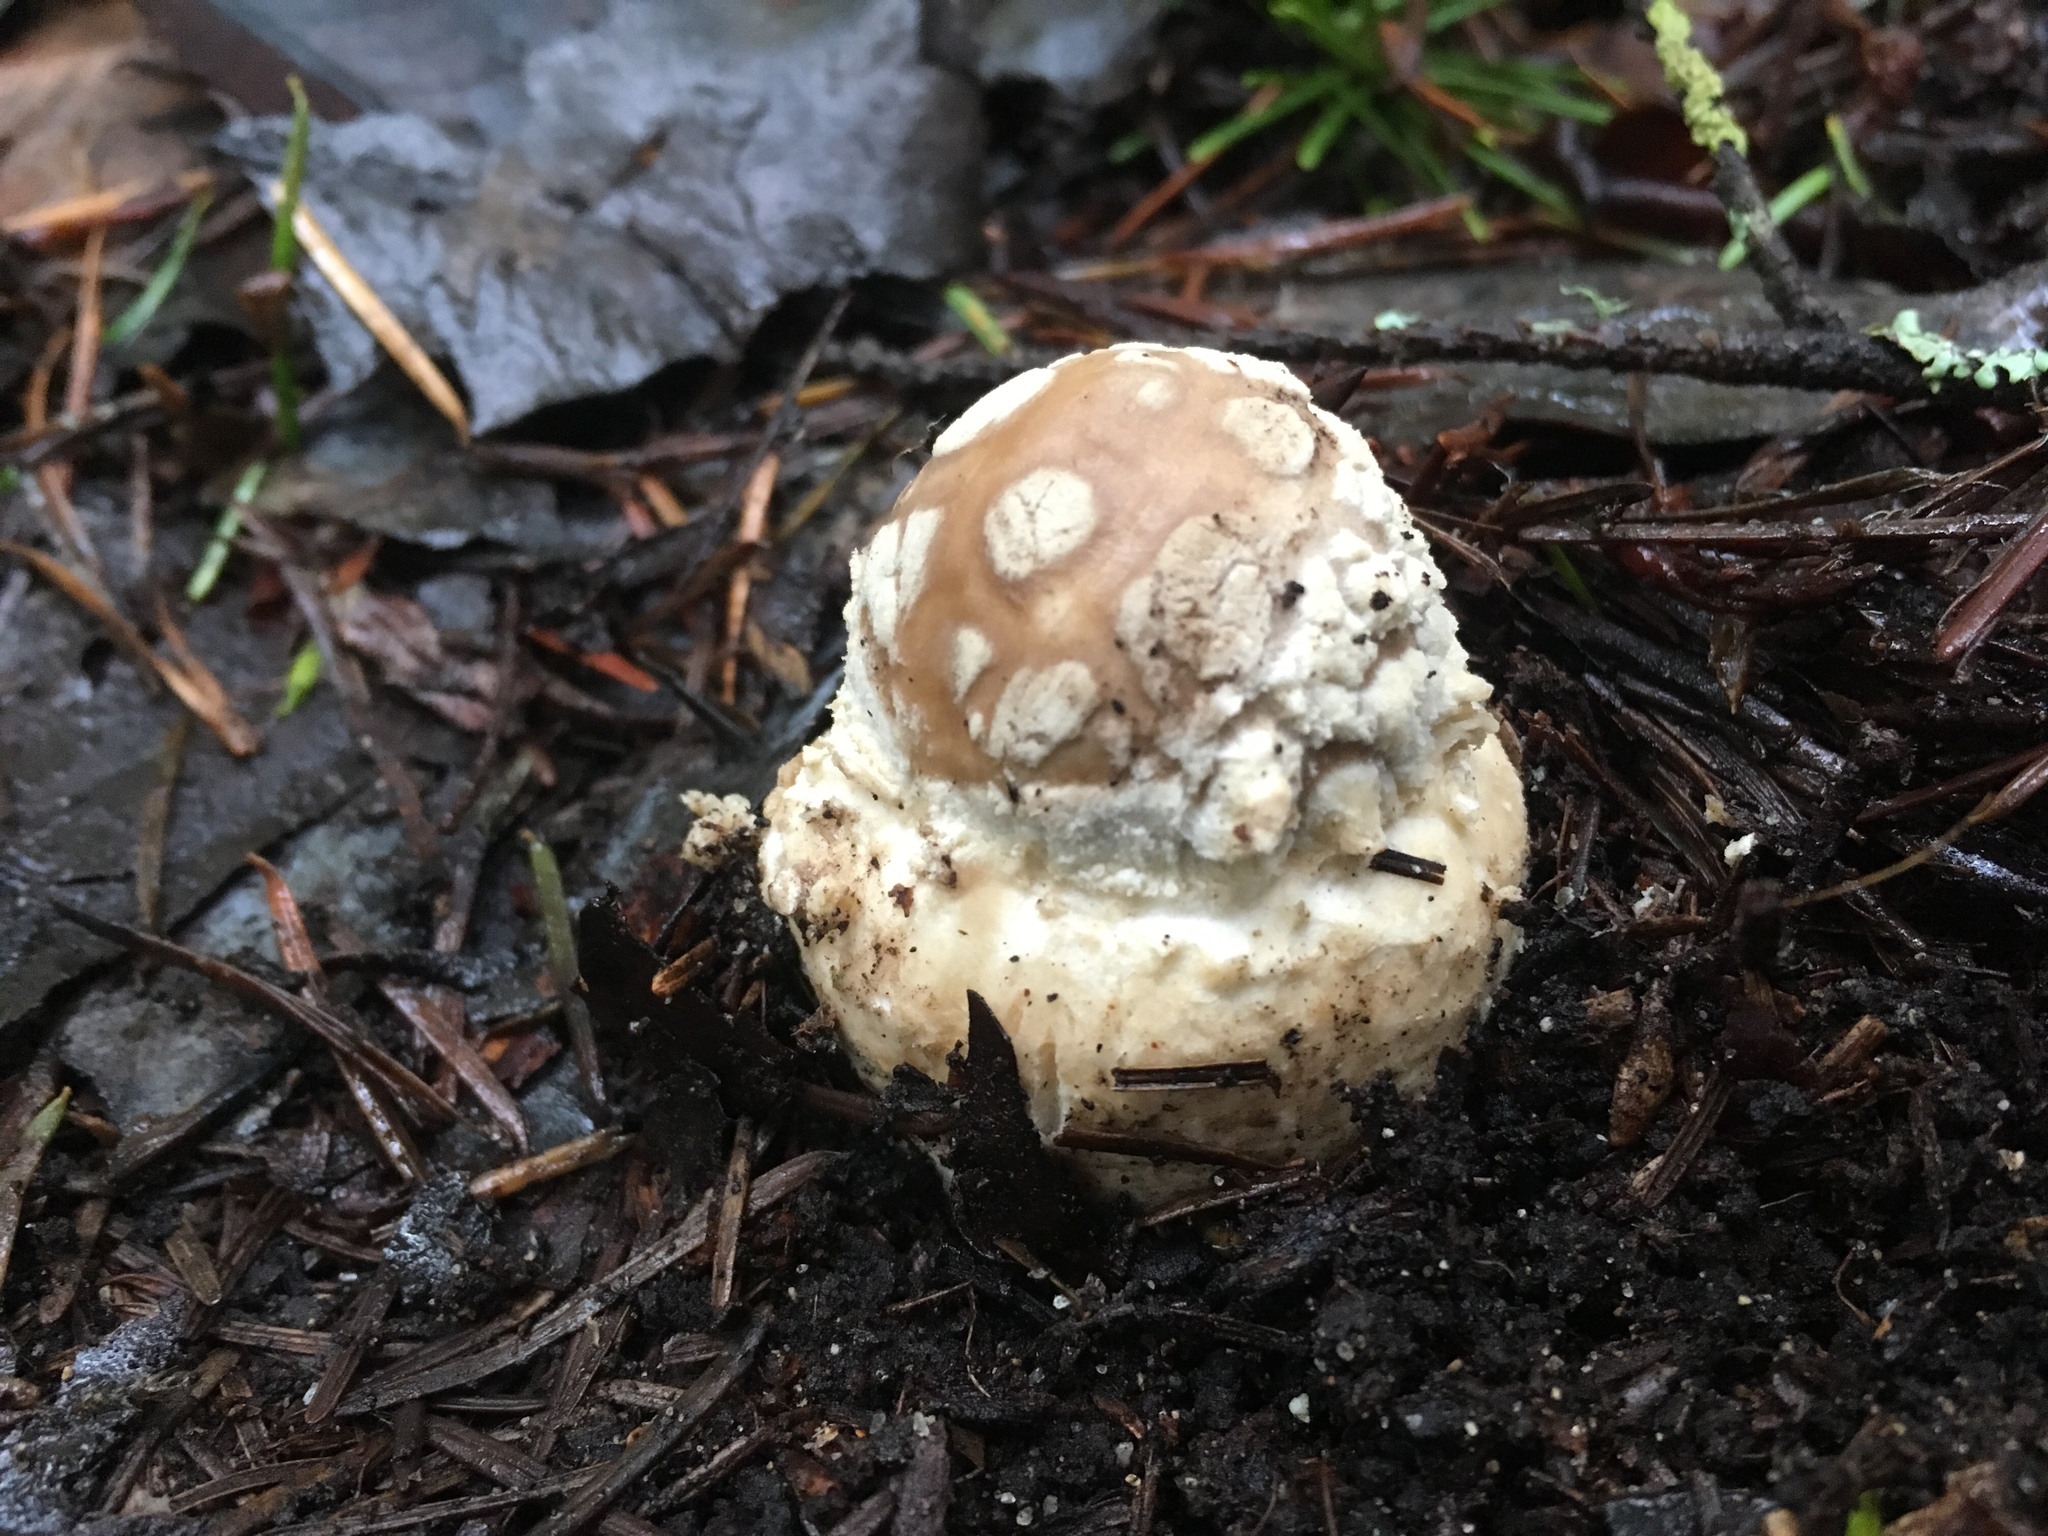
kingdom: Fungi
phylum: Basidiomycota
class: Agaricomycetes
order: Agaricales
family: Amanitaceae
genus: Amanita
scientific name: Amanita pantherina
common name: Panthercap
